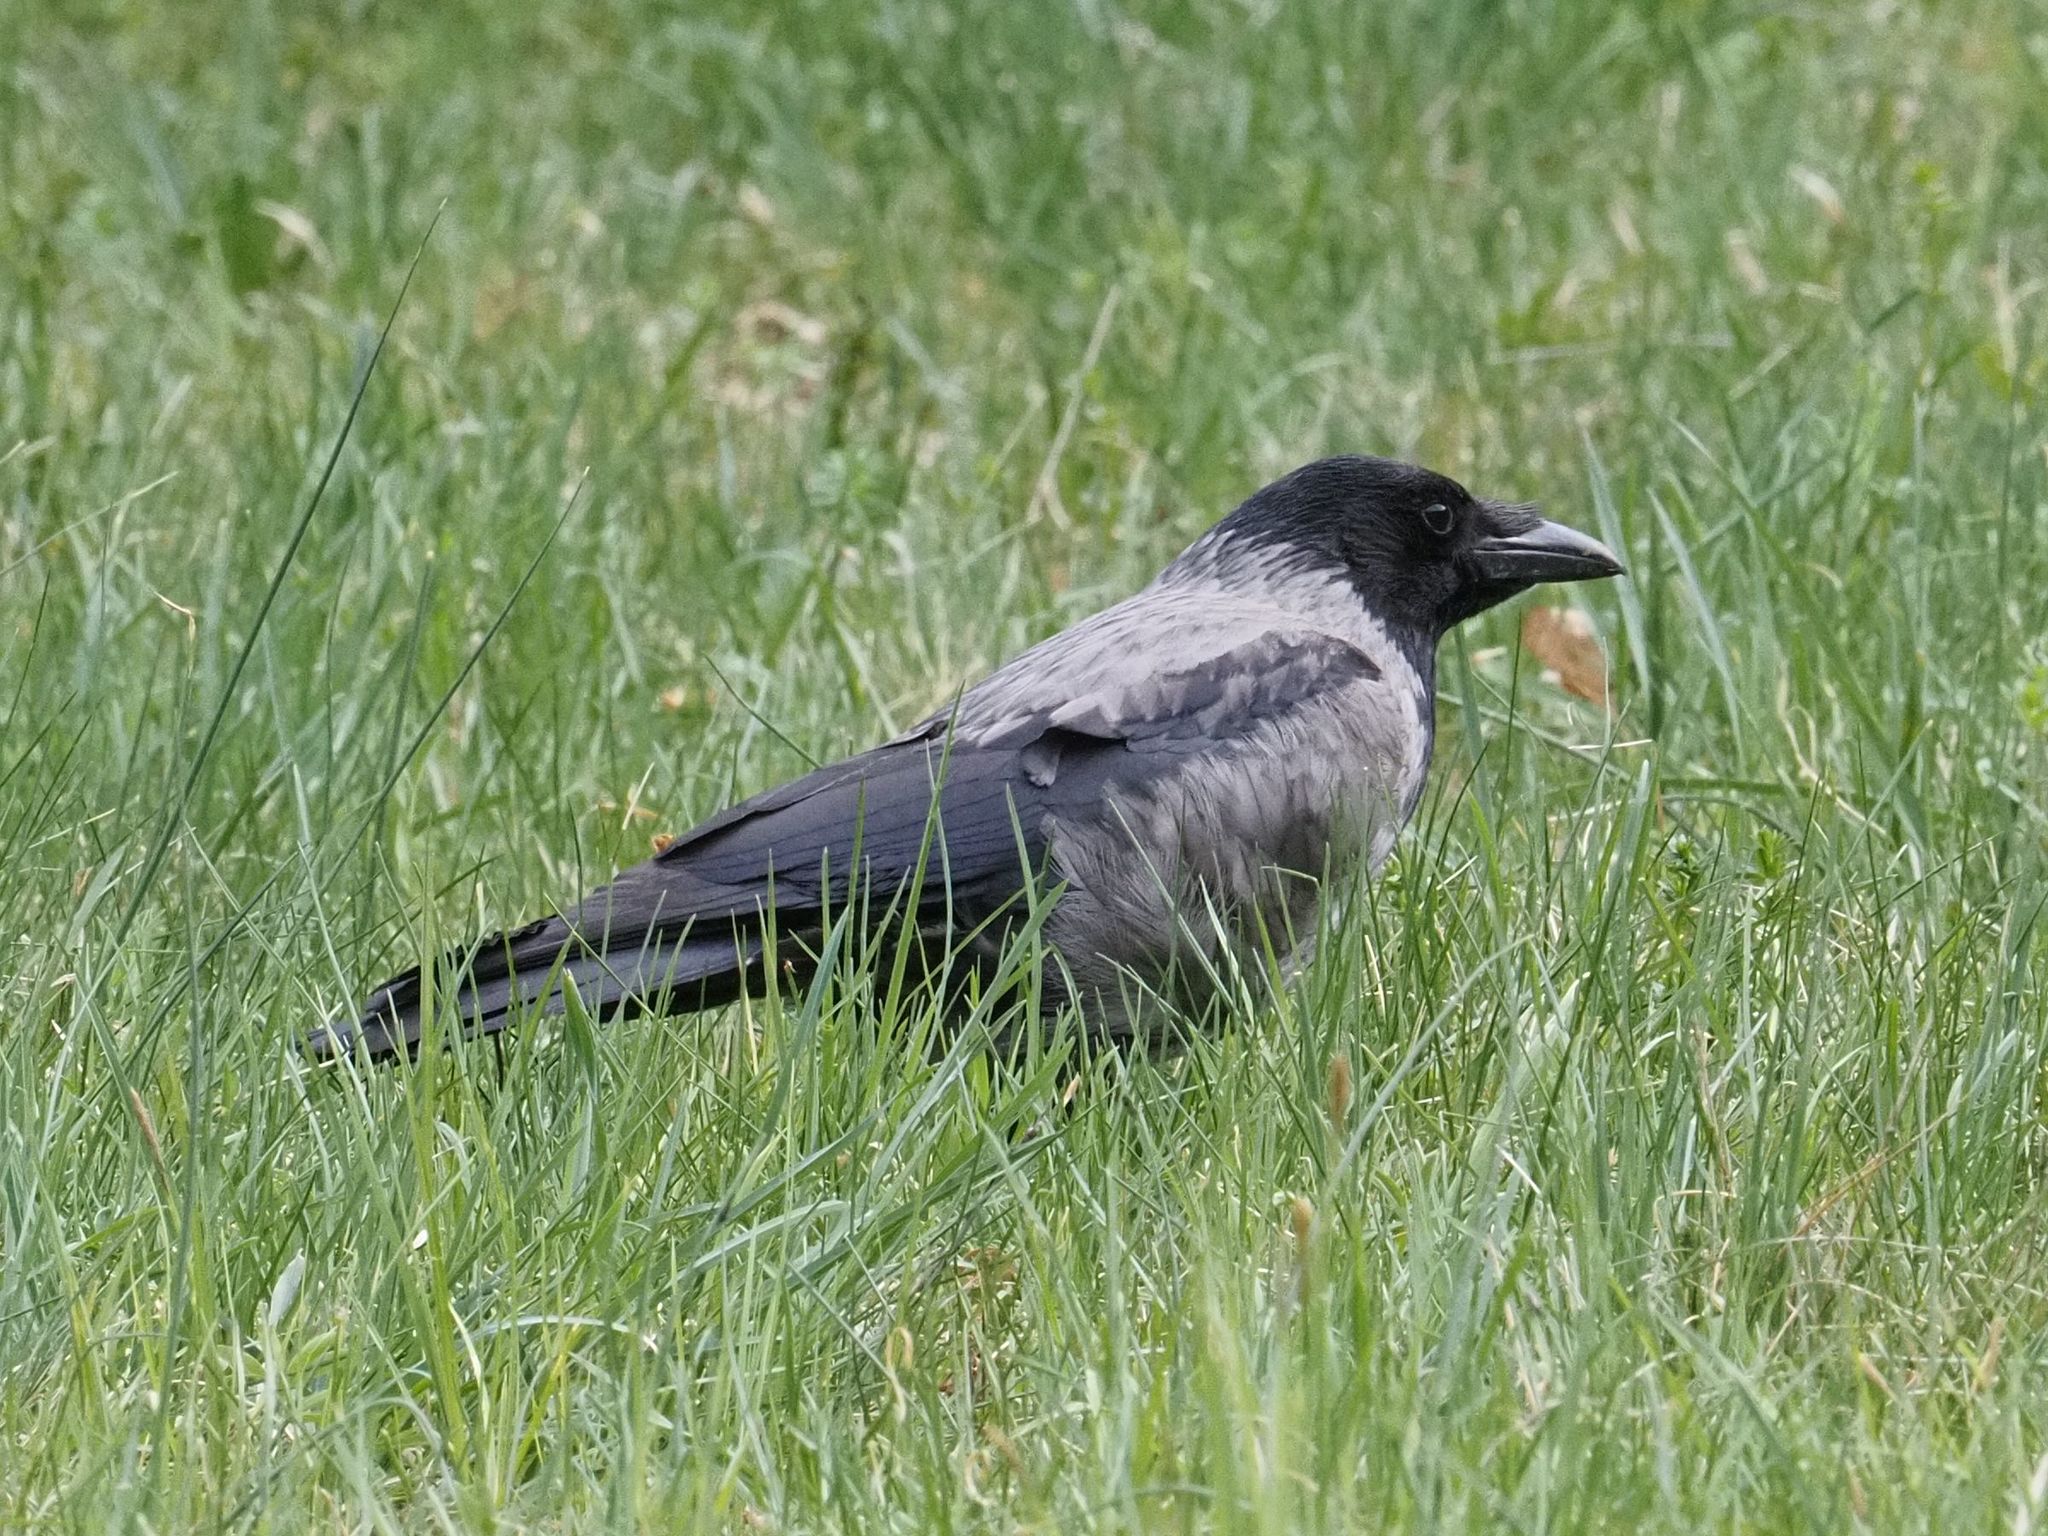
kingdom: Animalia
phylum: Chordata
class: Aves
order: Passeriformes
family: Corvidae
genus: Corvus
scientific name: Corvus cornix
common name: Hooded crow
